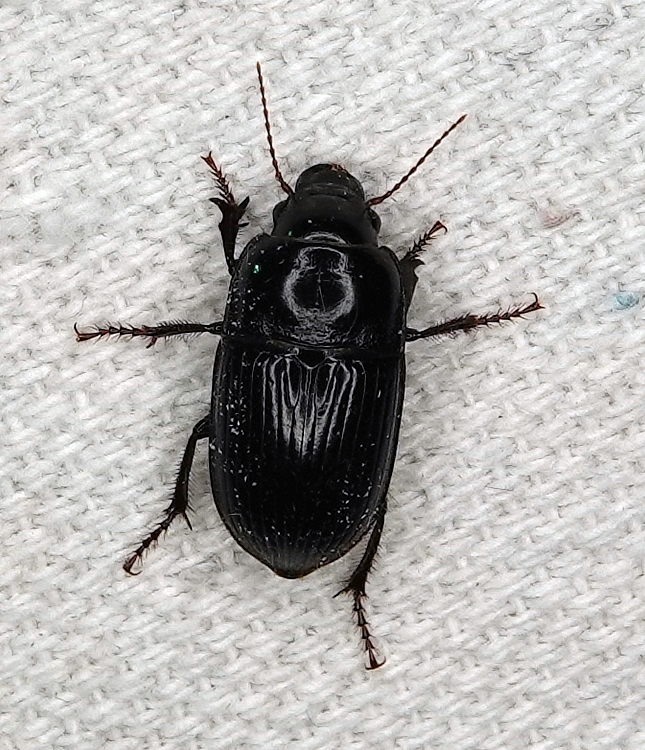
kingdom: Animalia
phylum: Arthropoda
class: Insecta
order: Coleoptera
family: Carabidae
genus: Euryderus
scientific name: Euryderus grossus
